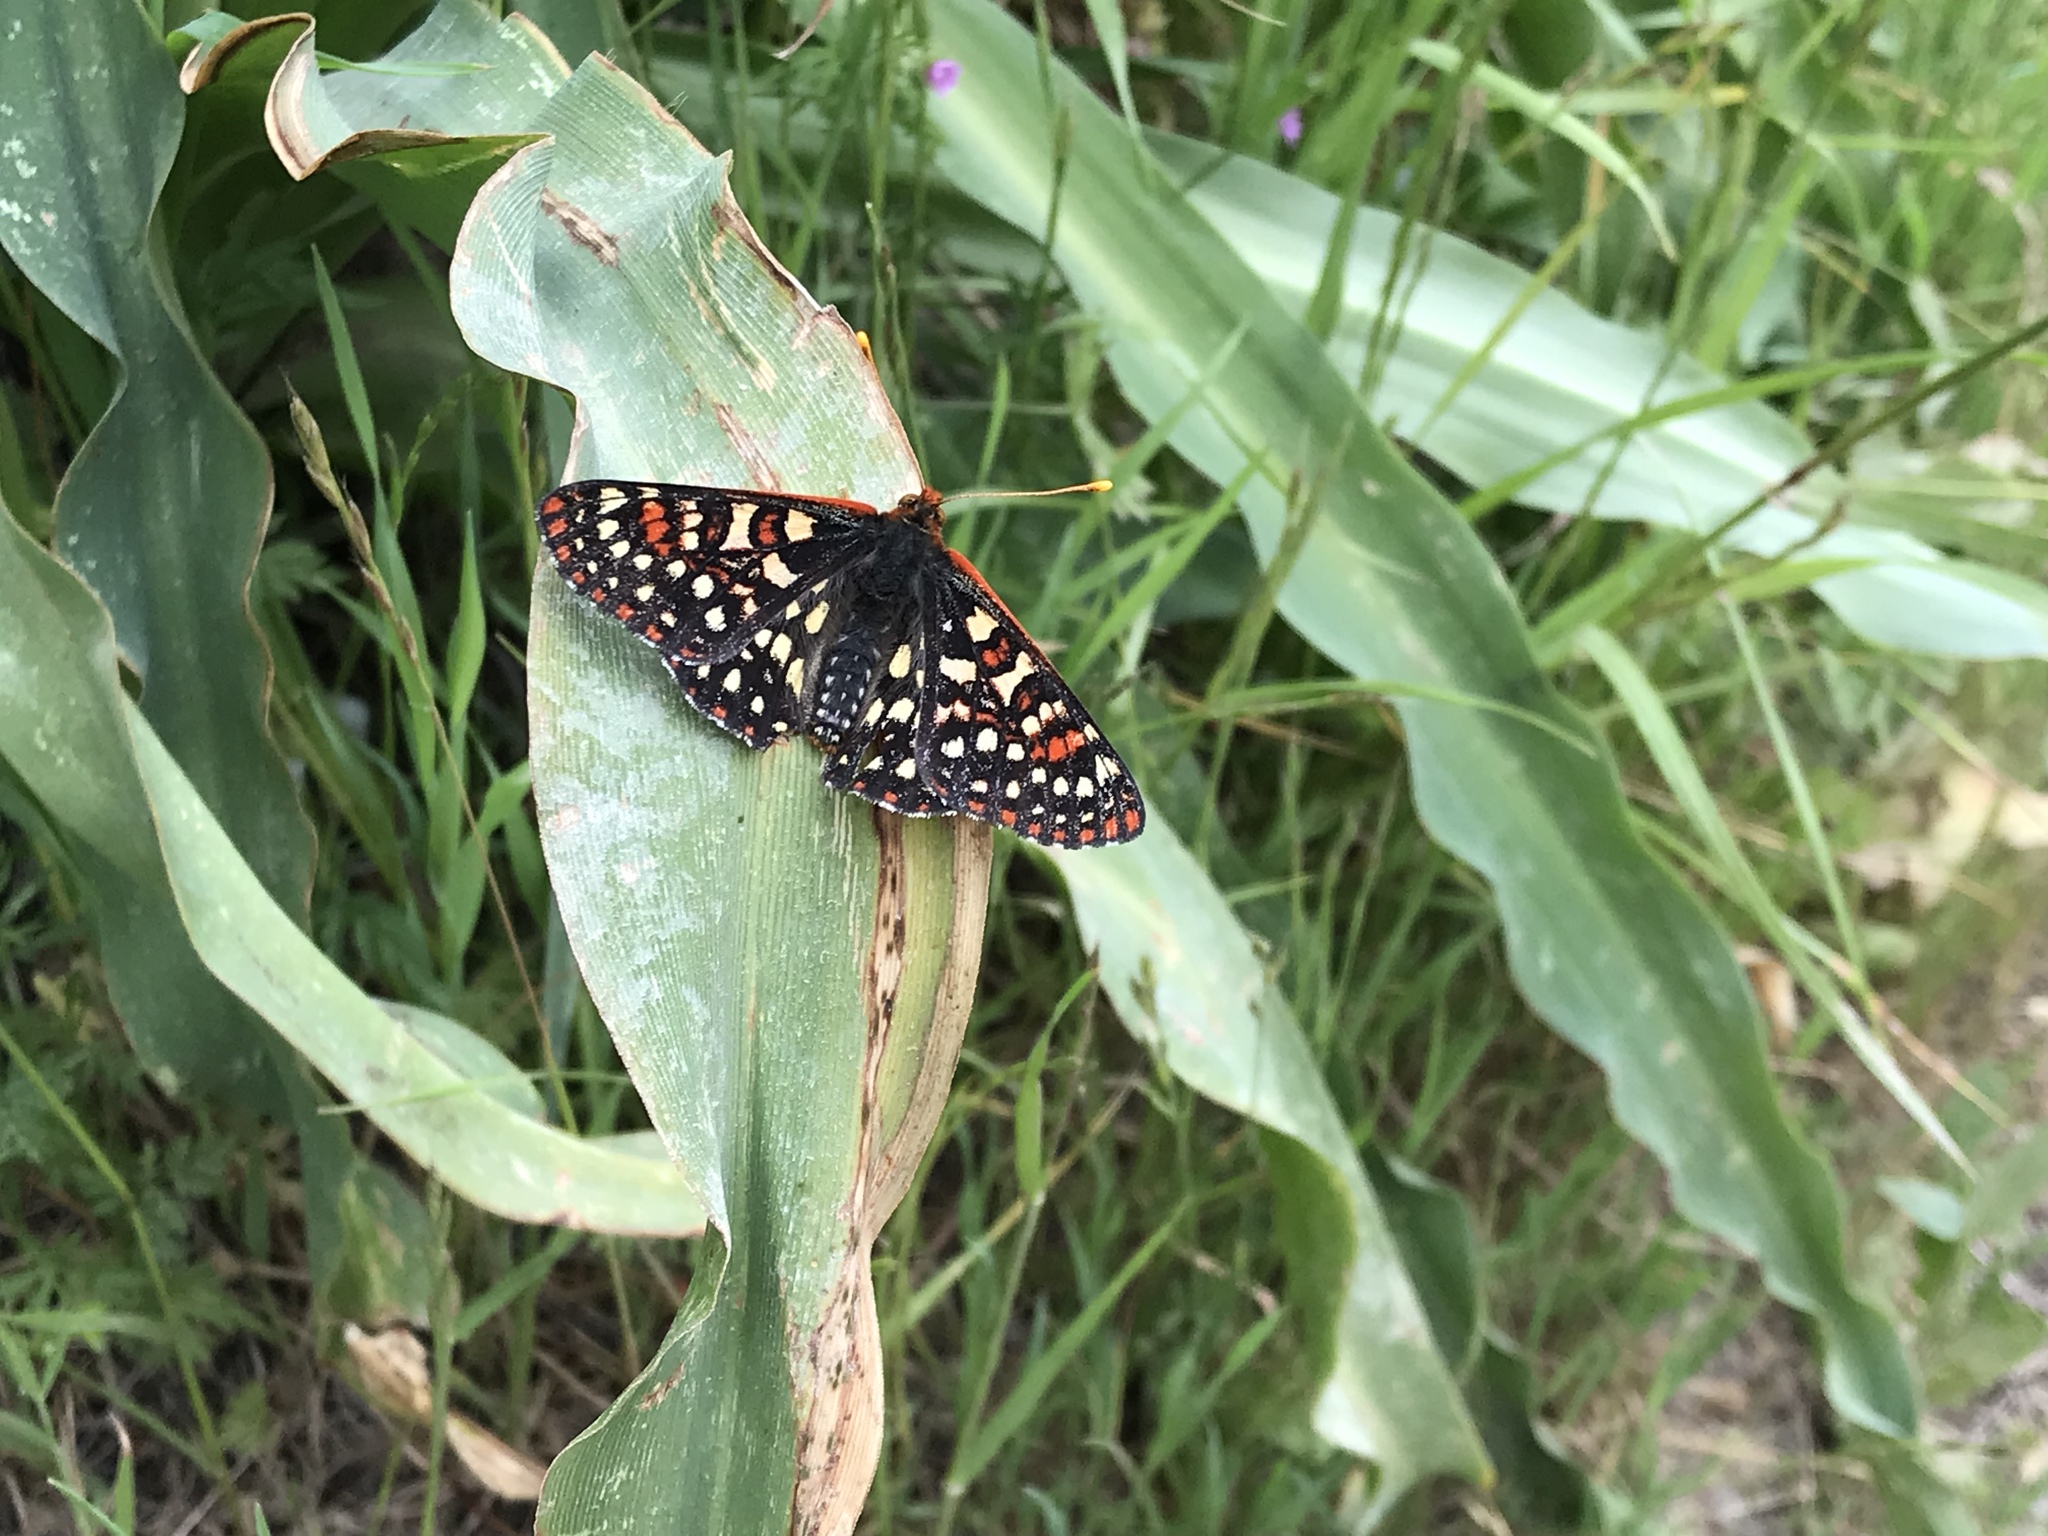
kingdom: Animalia
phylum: Arthropoda
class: Insecta
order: Lepidoptera
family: Nymphalidae
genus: Occidryas
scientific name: Occidryas chalcedona
